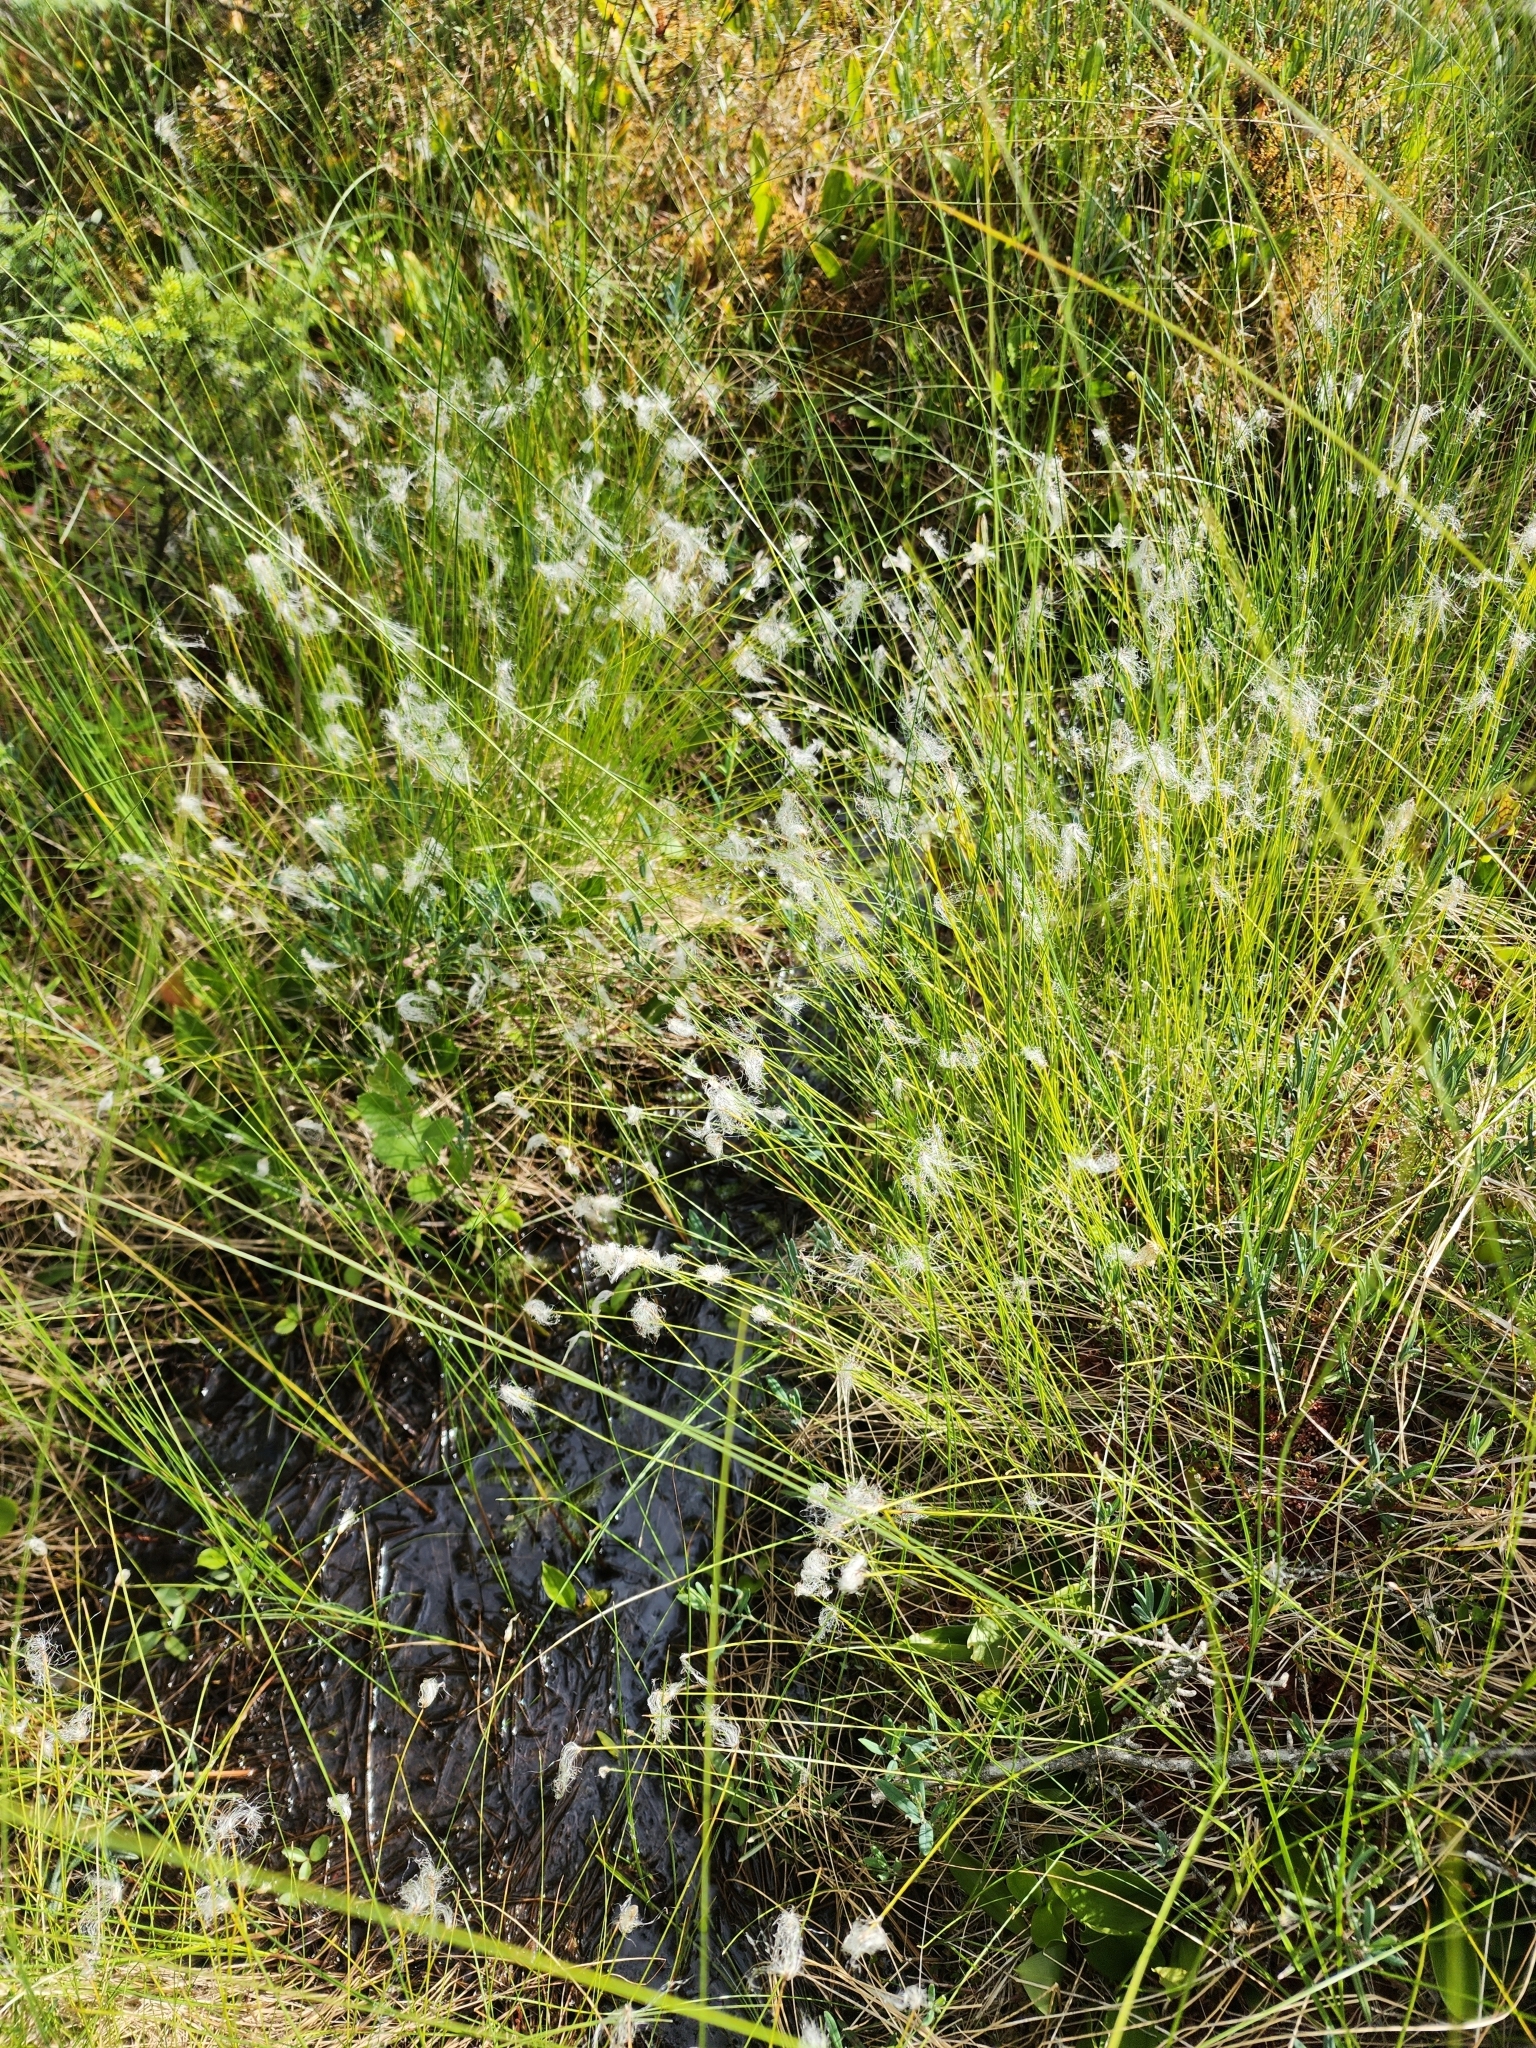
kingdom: Plantae
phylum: Tracheophyta
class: Liliopsida
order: Poales
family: Cyperaceae
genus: Trichophorum
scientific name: Trichophorum alpinum
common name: Alpine bulrush
